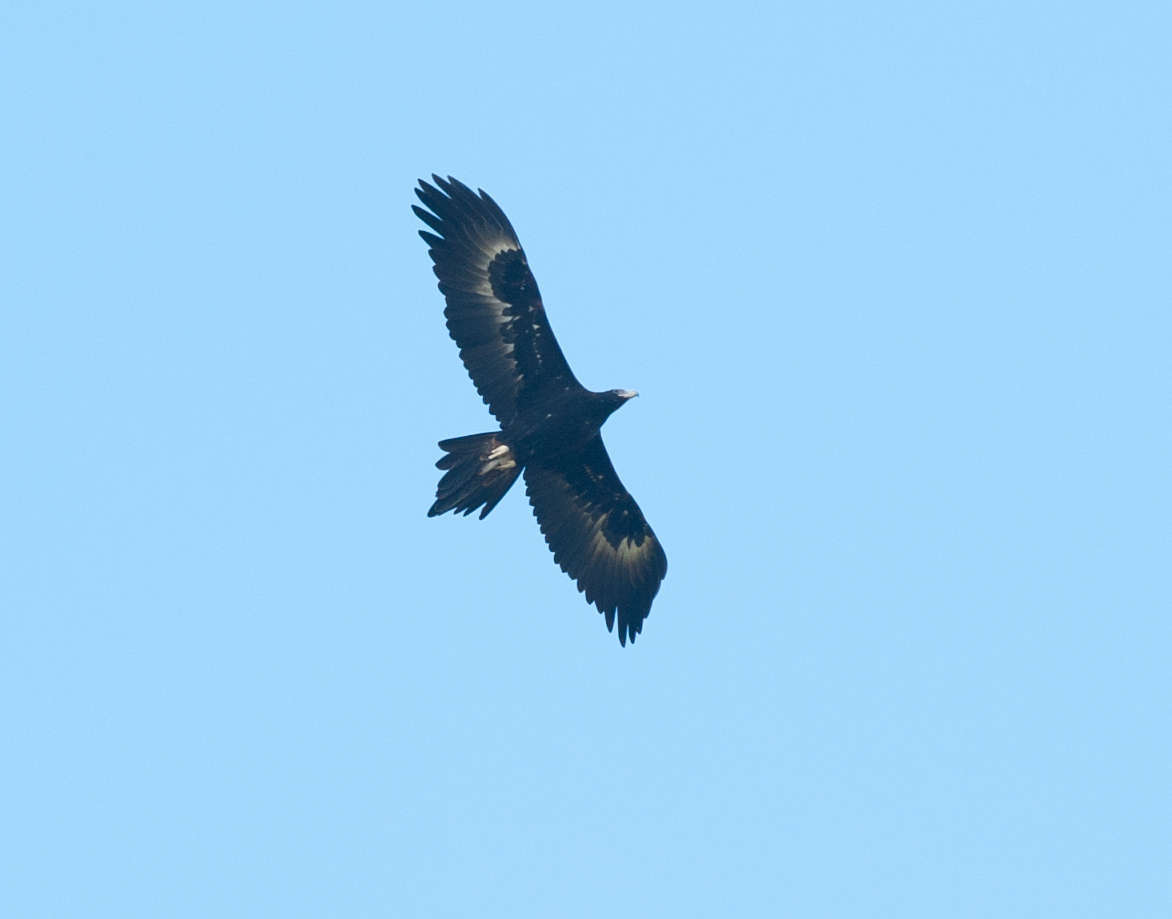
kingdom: Animalia
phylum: Chordata
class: Aves
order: Accipitriformes
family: Accipitridae
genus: Aquila
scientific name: Aquila audax
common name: Wedge-tailed eagle
